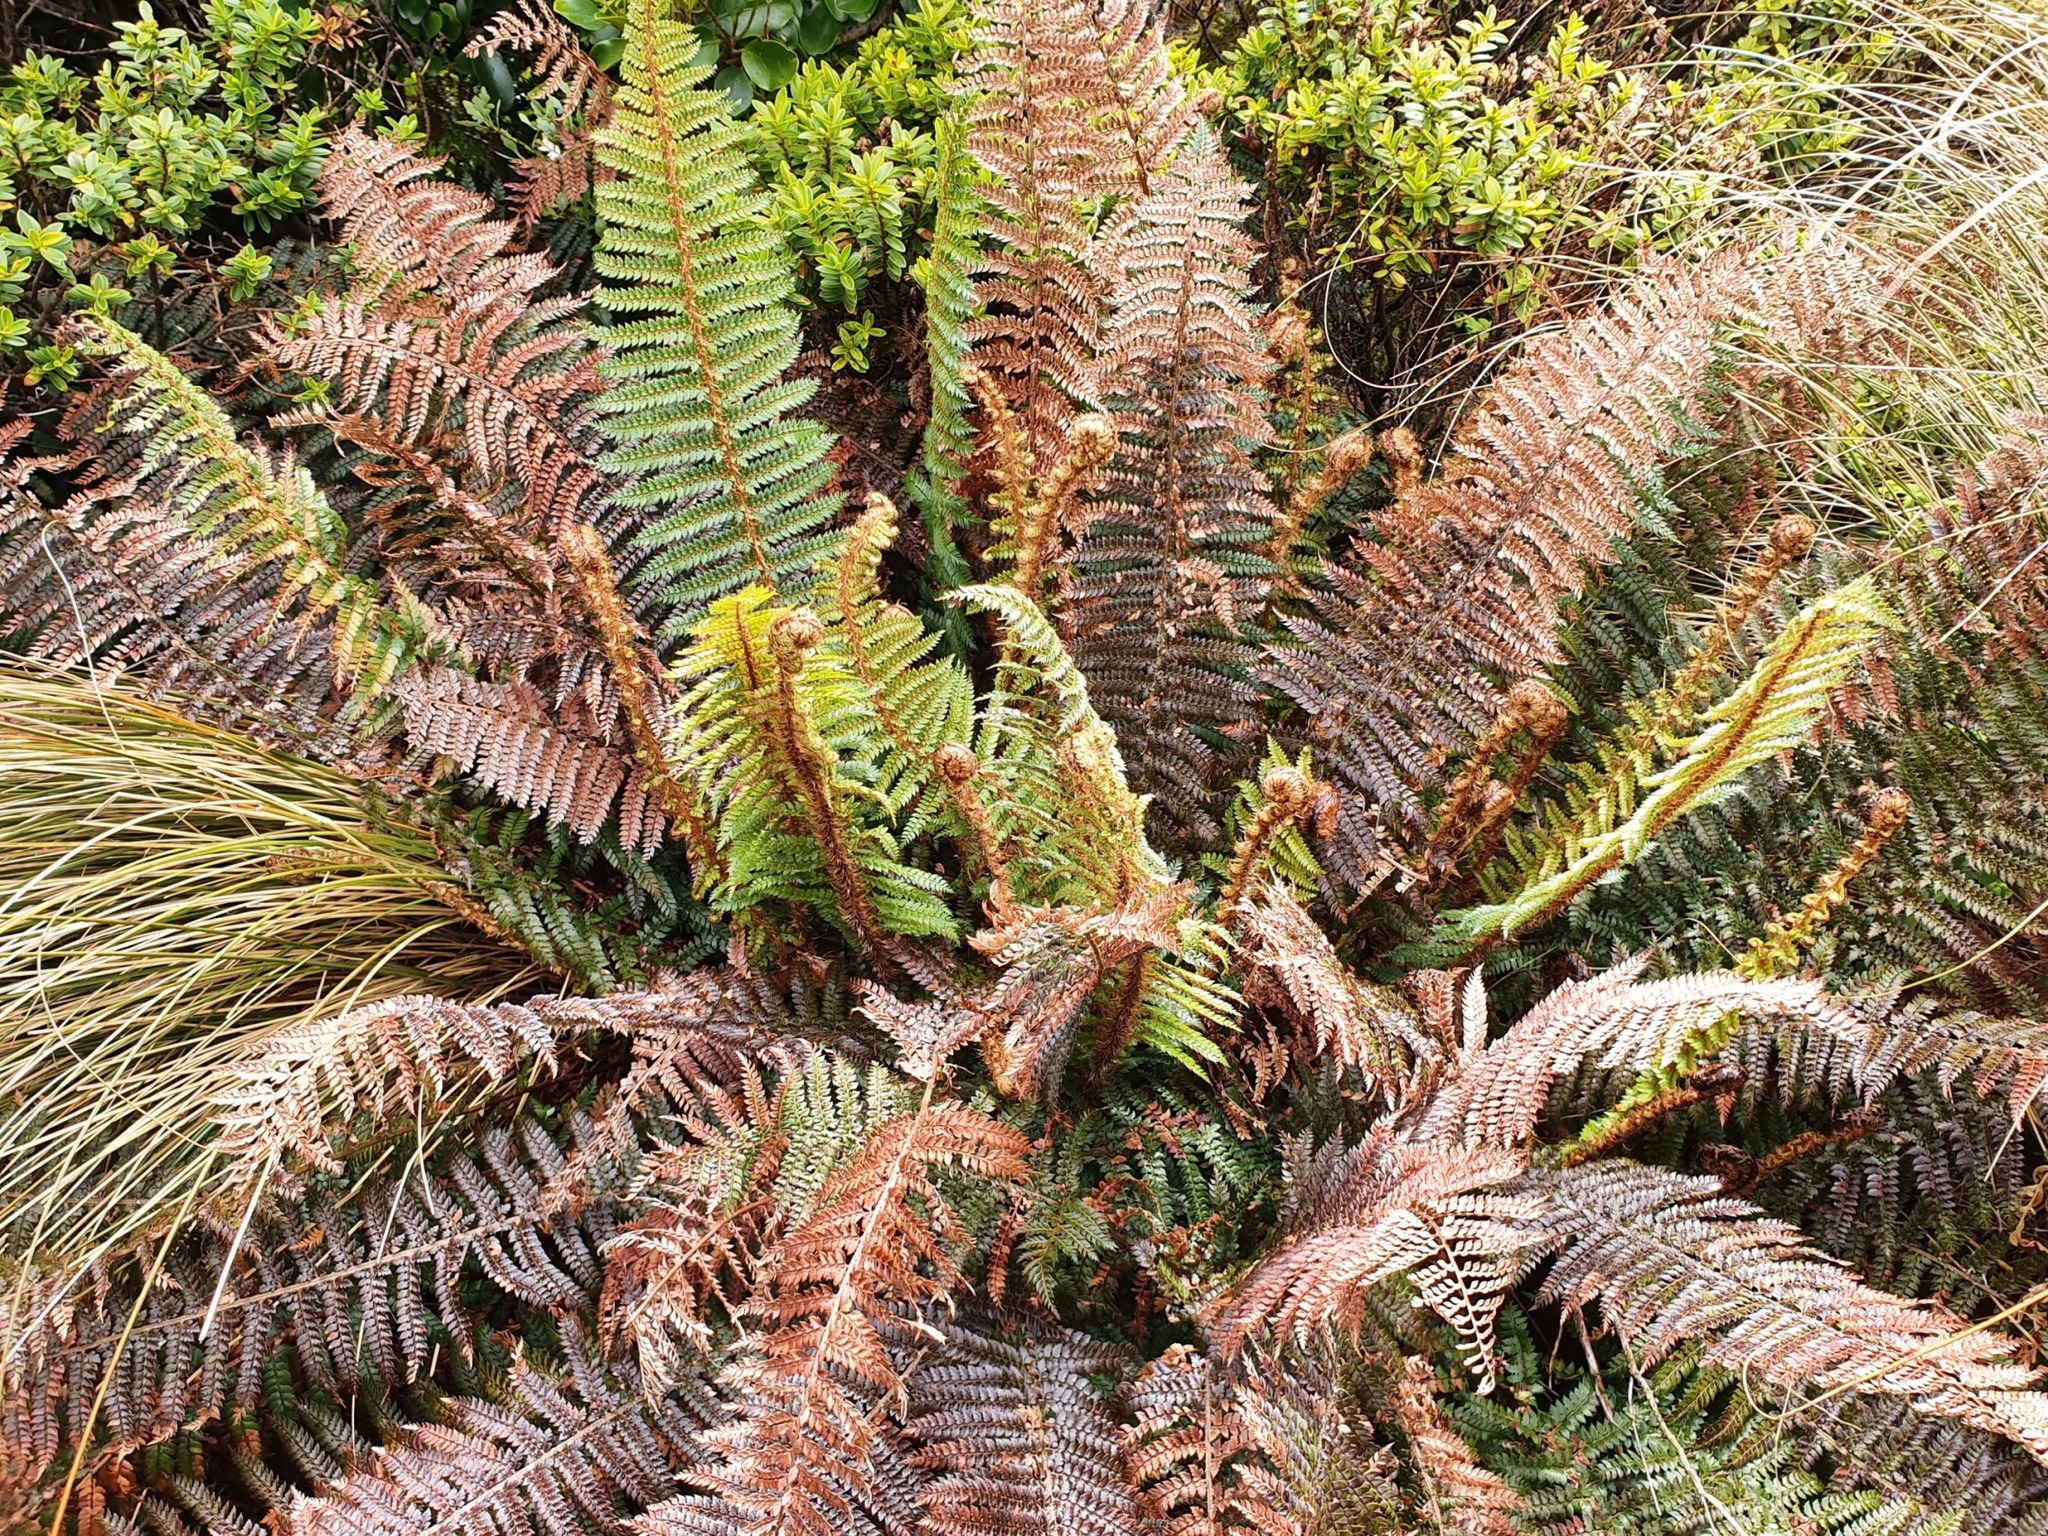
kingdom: Plantae
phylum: Tracheophyta
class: Polypodiopsida
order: Polypodiales
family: Dryopteridaceae
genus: Polystichum
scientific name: Polystichum vestitum
